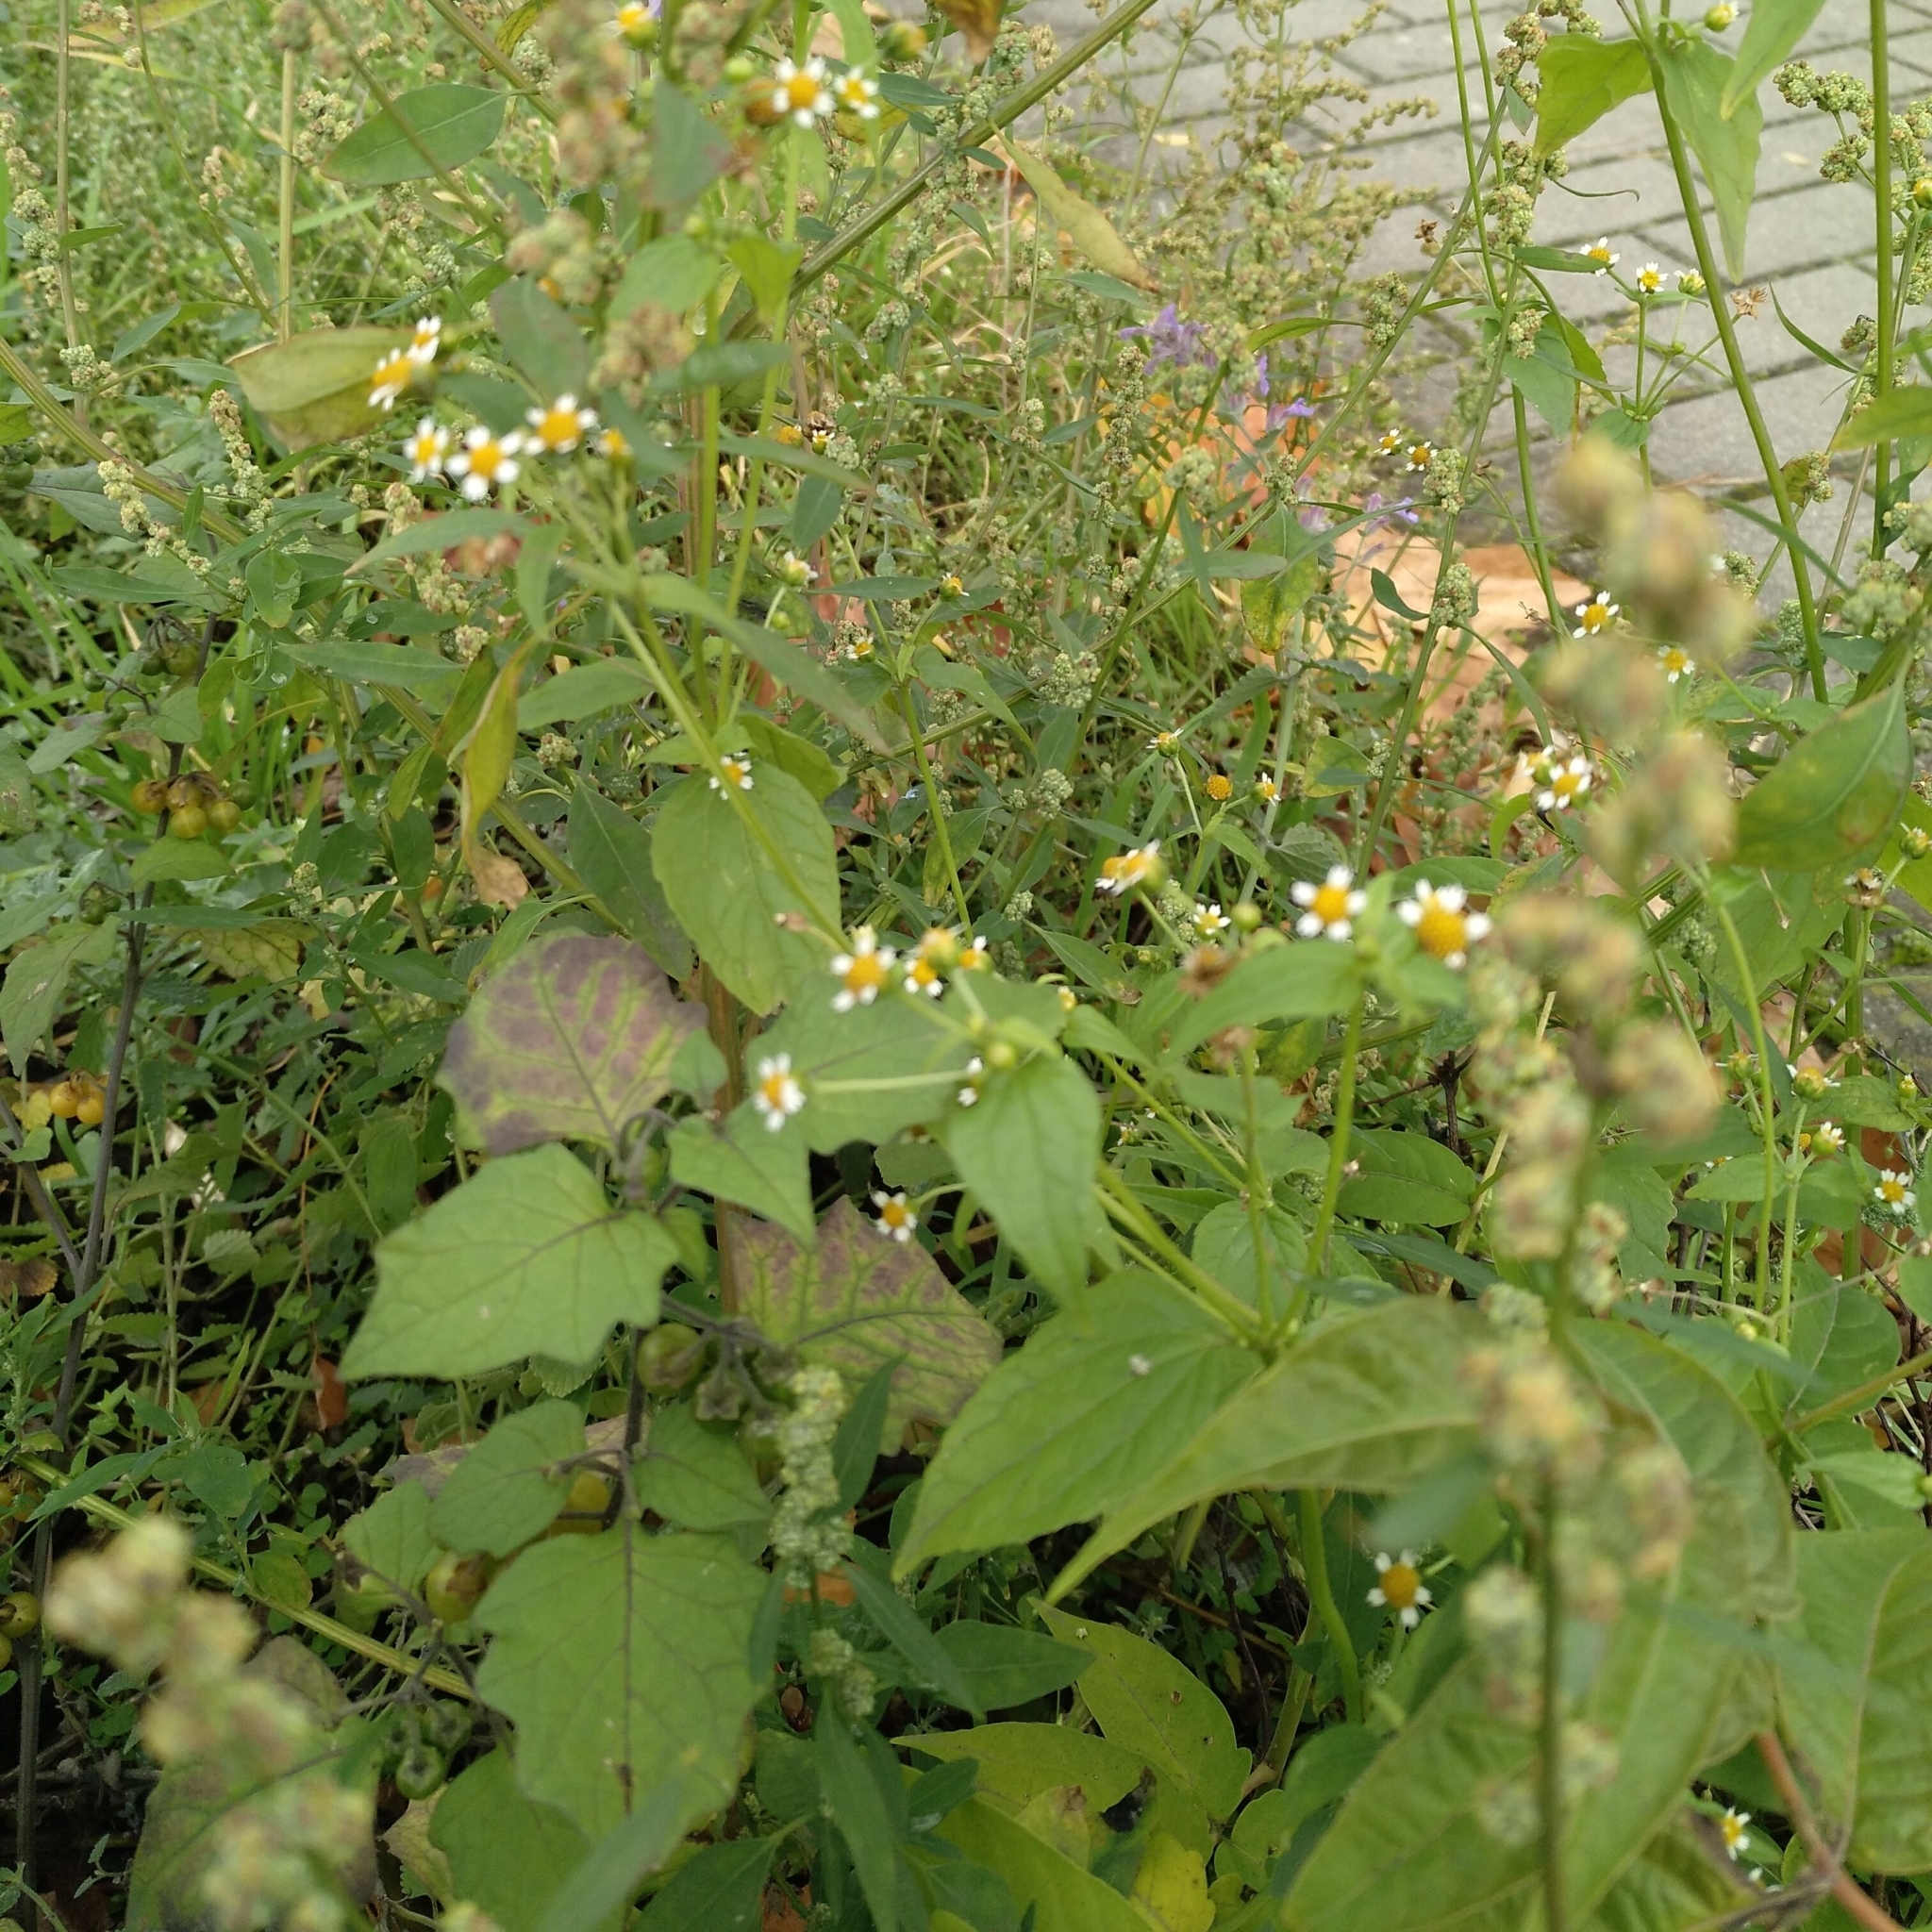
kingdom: Plantae
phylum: Tracheophyta
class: Magnoliopsida
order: Asterales
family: Asteraceae
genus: Galinsoga
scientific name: Galinsoga parviflora
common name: Gallant soldier
